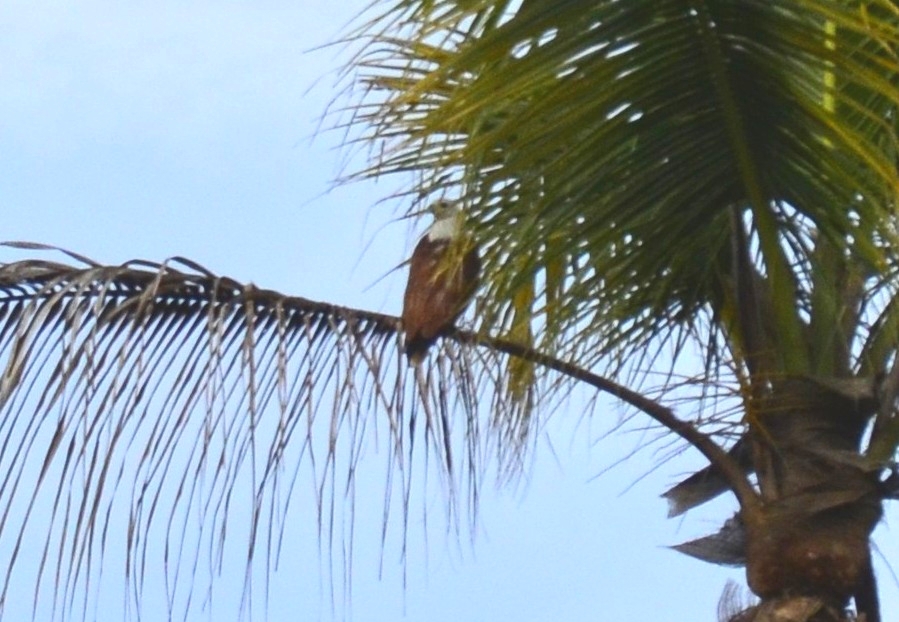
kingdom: Animalia
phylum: Chordata
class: Aves
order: Accipitriformes
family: Accipitridae
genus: Haliastur
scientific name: Haliastur indus
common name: Brahminy kite
